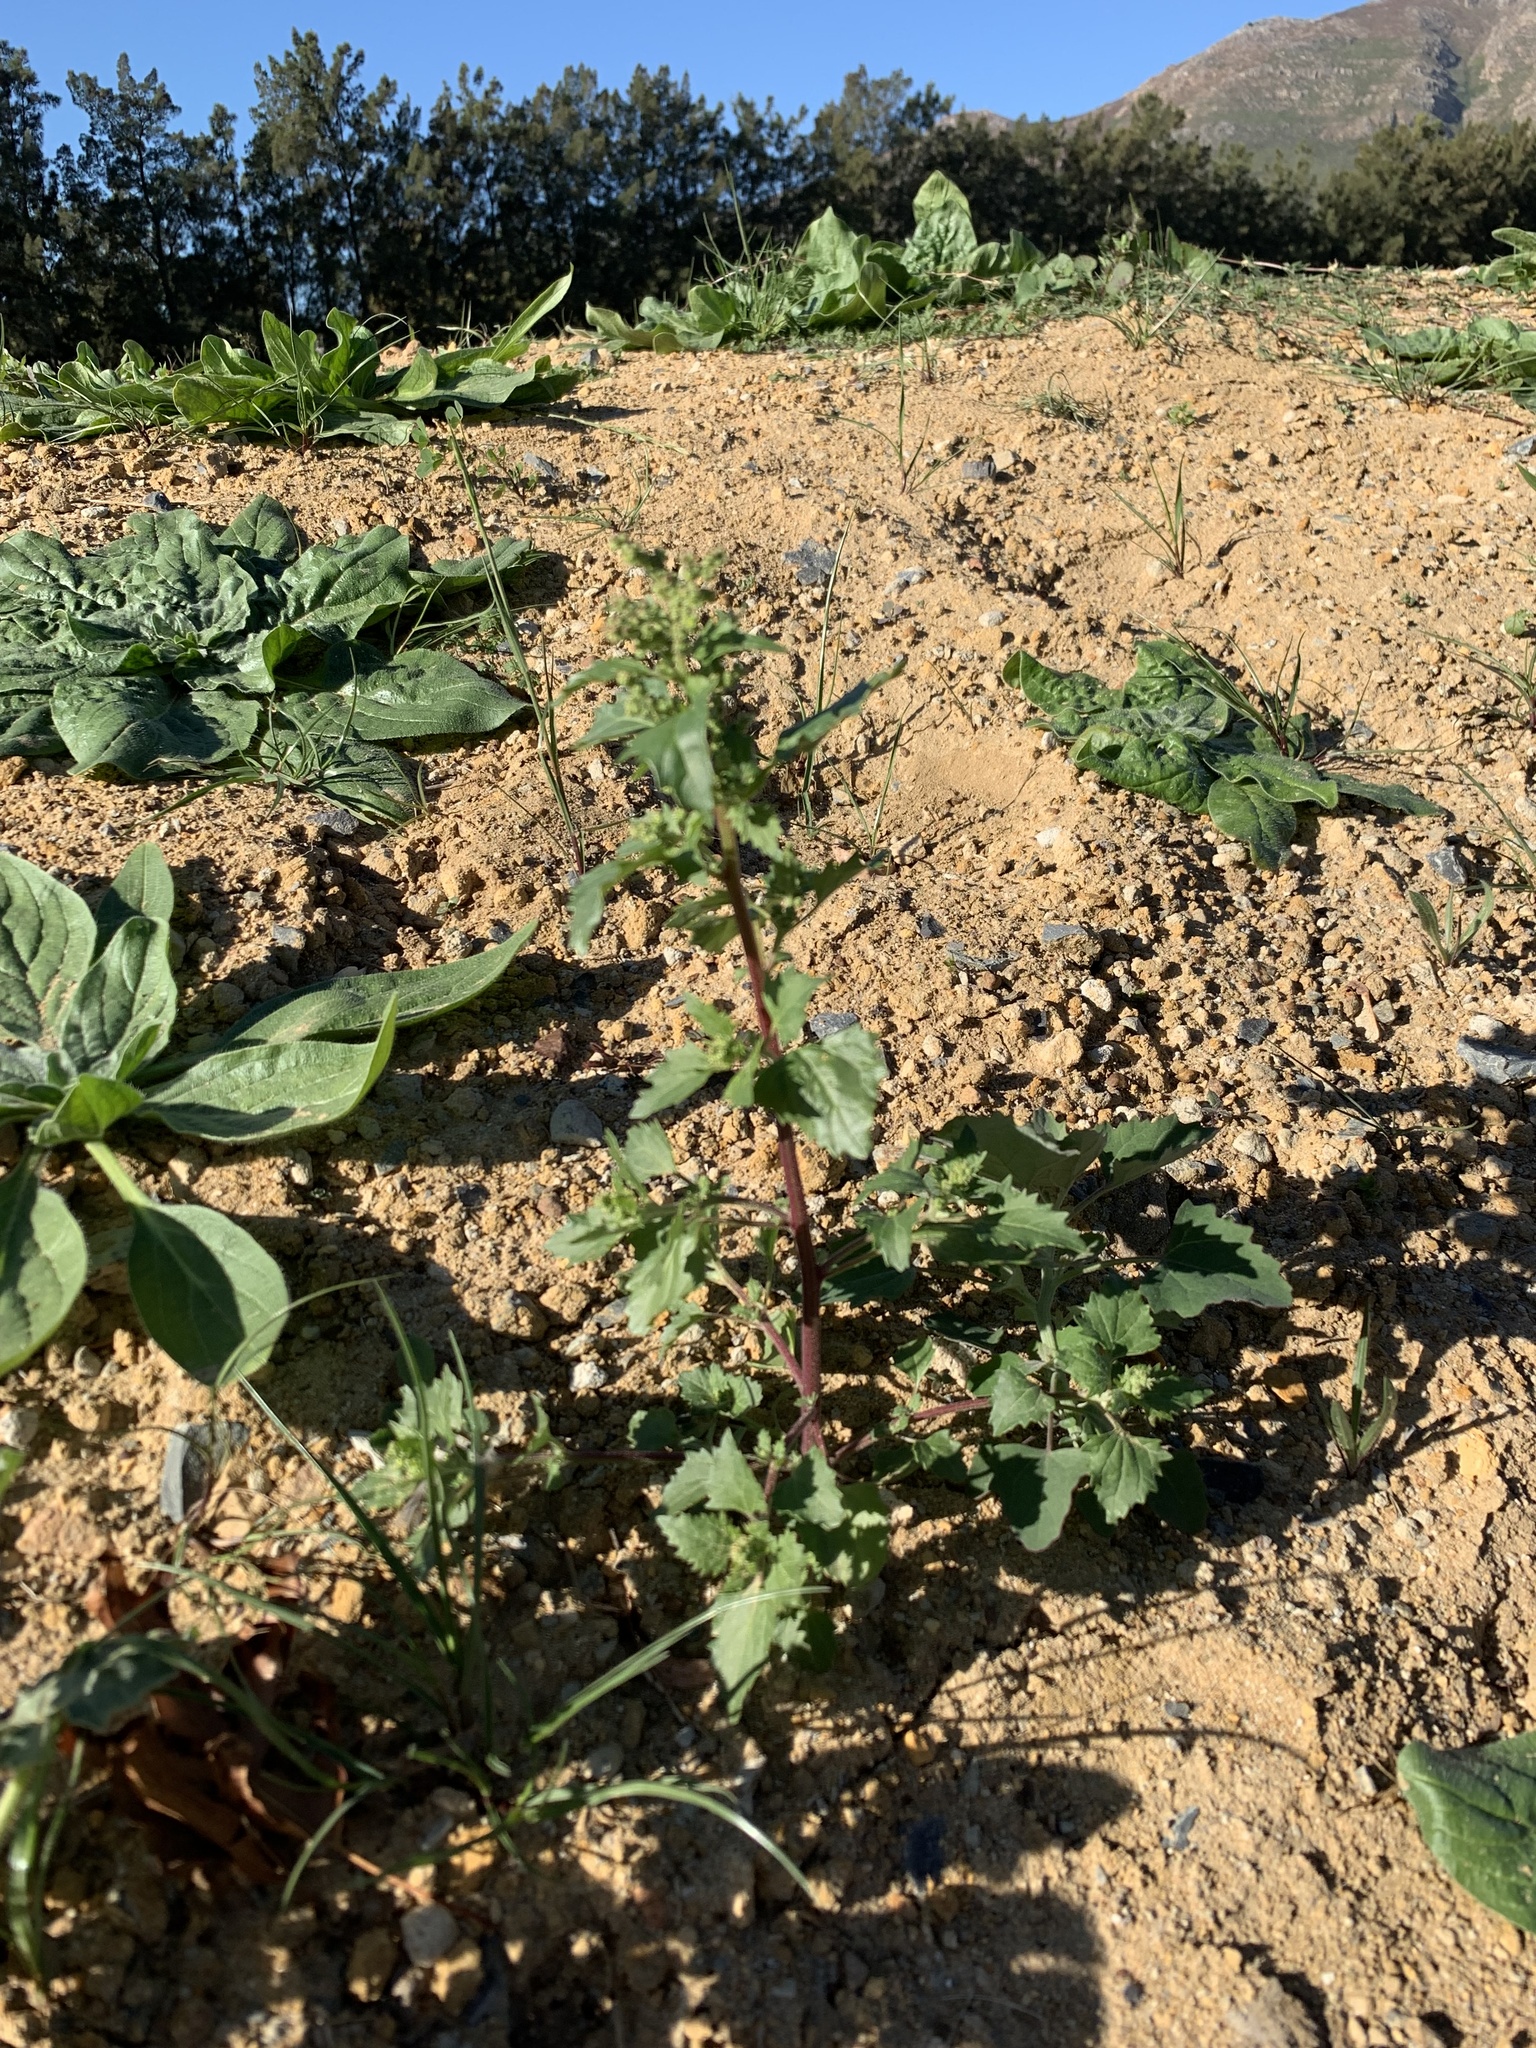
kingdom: Plantae
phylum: Tracheophyta
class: Magnoliopsida
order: Caryophyllales
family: Amaranthaceae
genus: Chenopodiastrum
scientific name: Chenopodiastrum murale
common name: Sowbane
